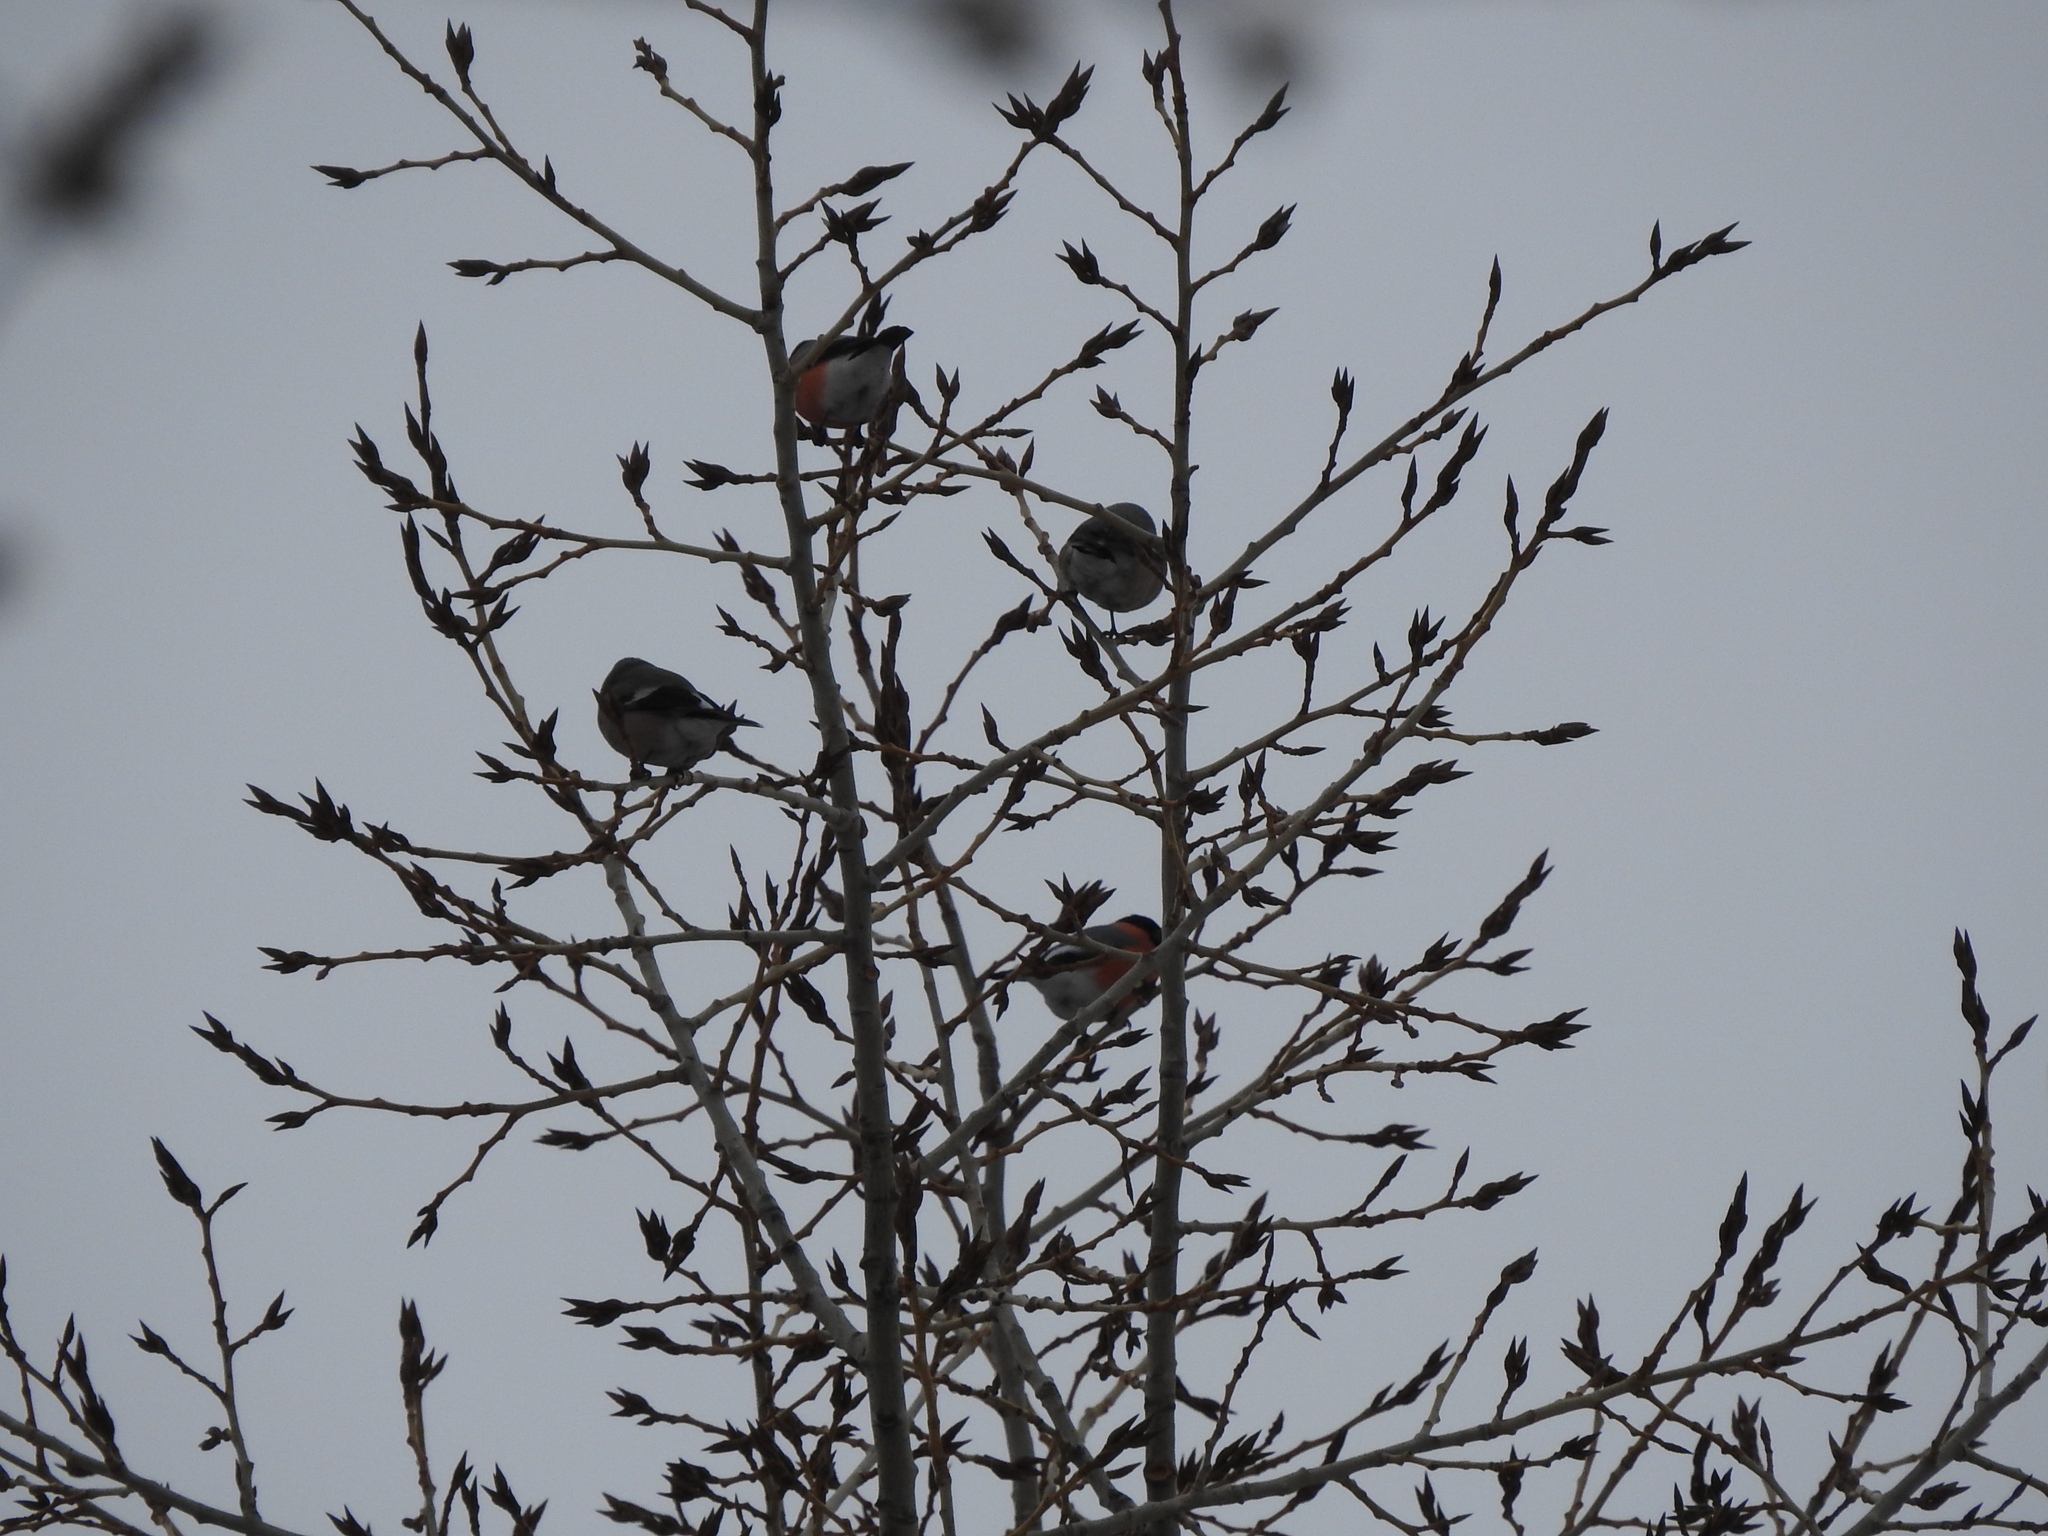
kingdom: Animalia
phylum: Chordata
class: Aves
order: Passeriformes
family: Fringillidae
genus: Pyrrhula
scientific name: Pyrrhula pyrrhula
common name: Eurasian bullfinch
